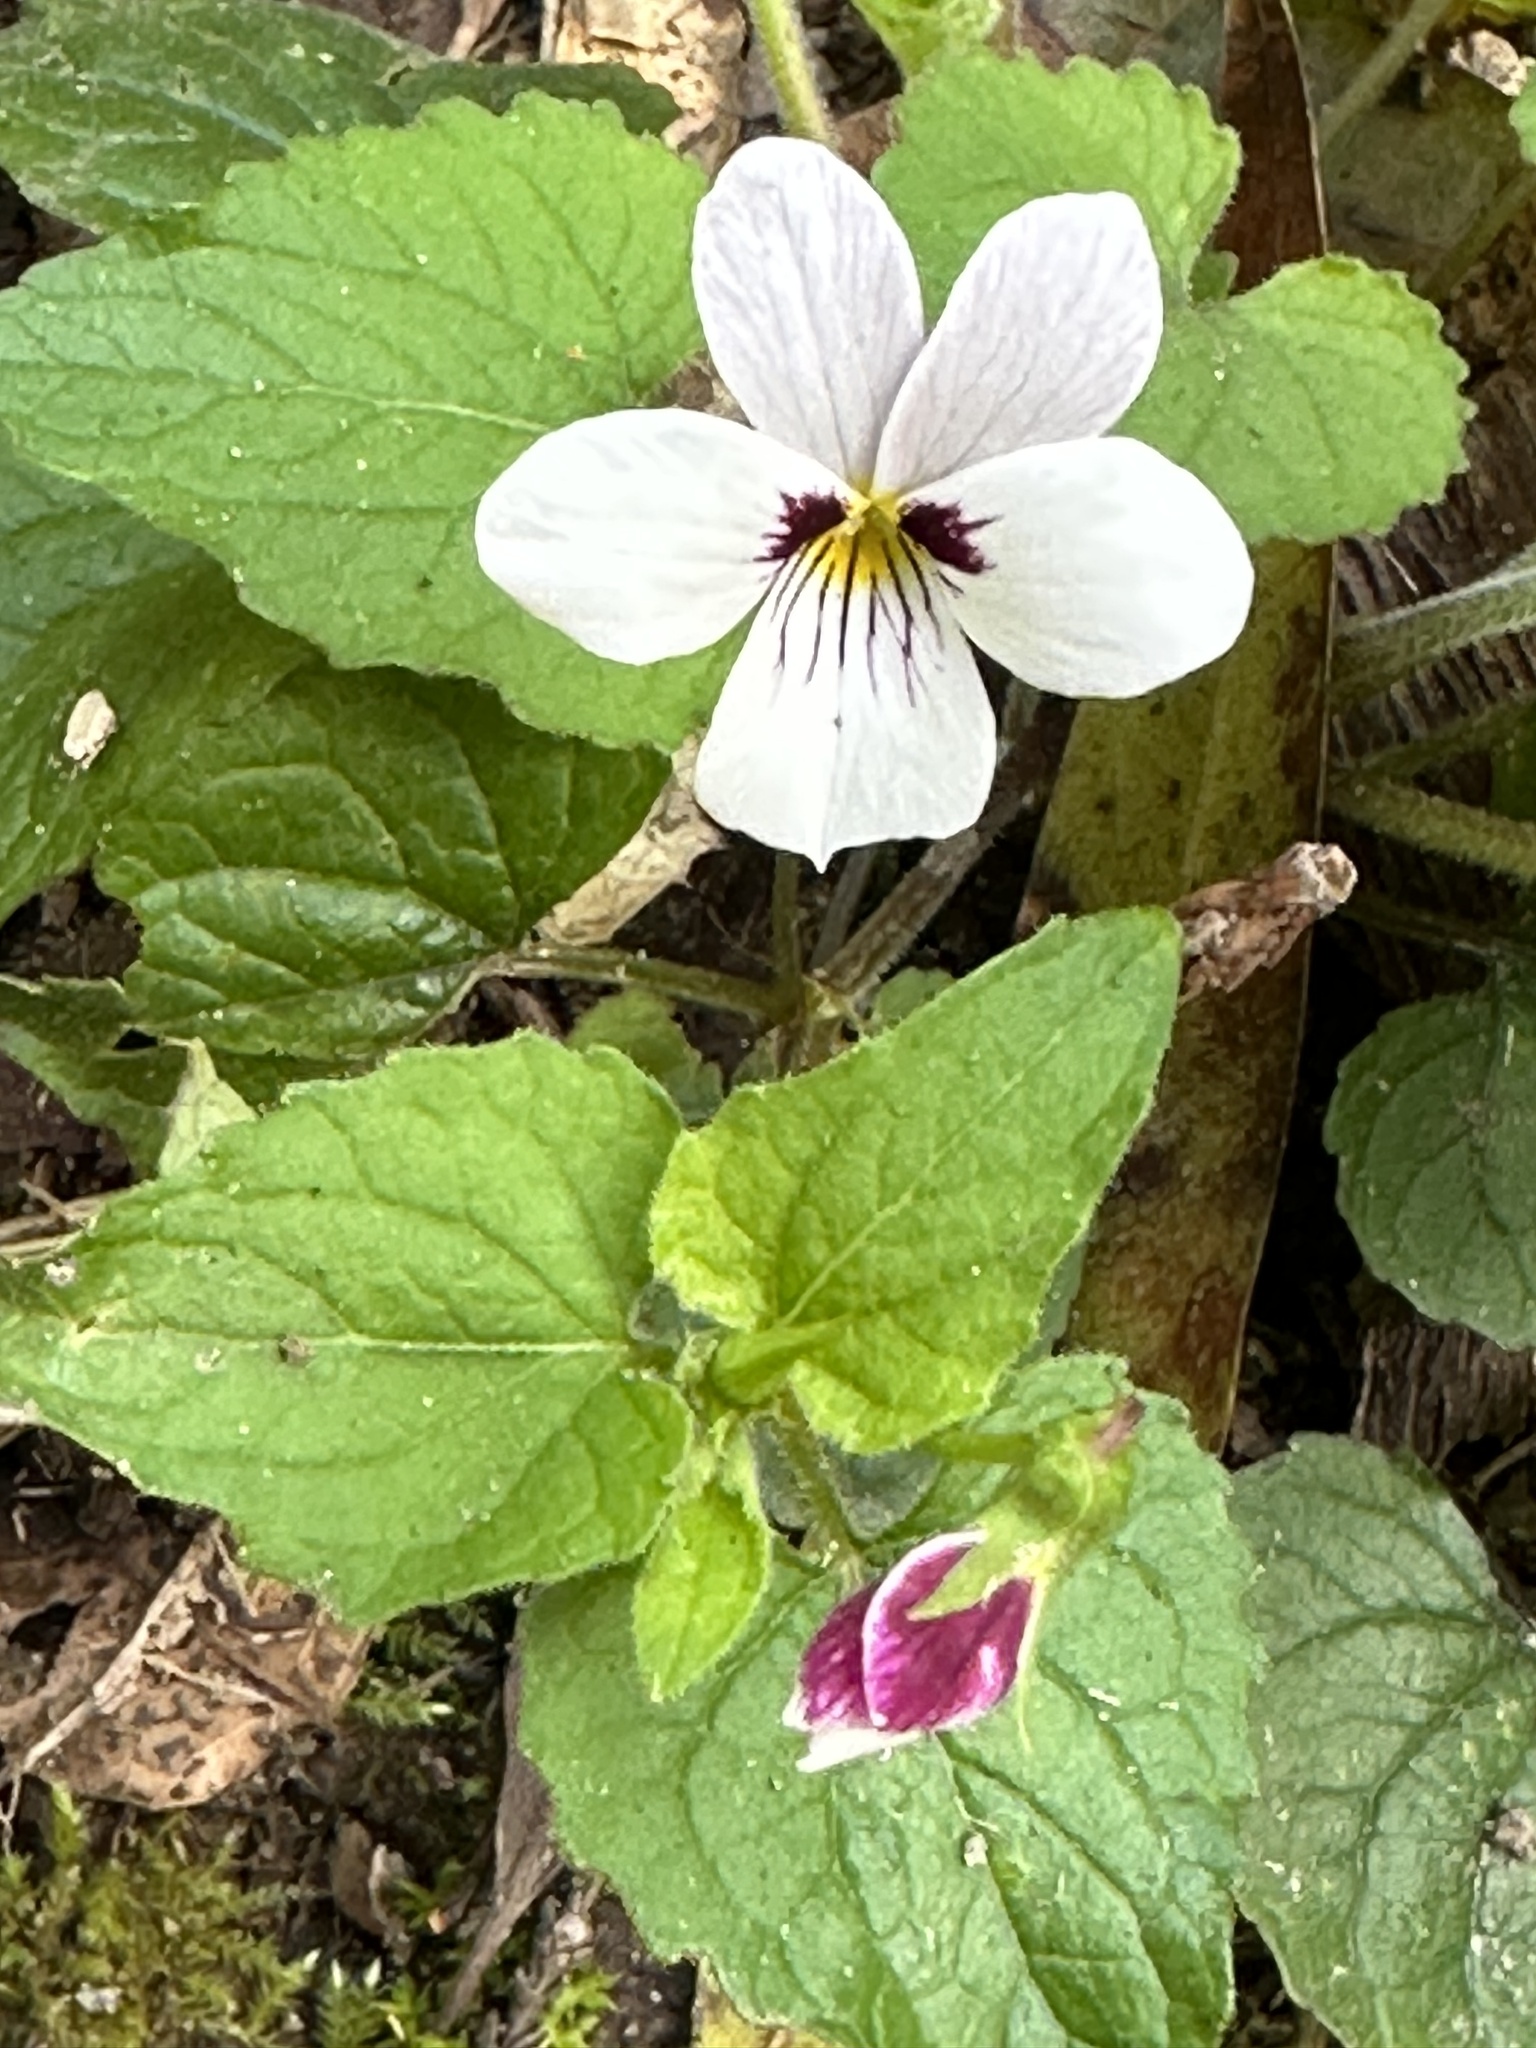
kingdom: Plantae
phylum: Tracheophyta
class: Magnoliopsida
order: Malpighiales
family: Violaceae
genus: Viola
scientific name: Viola ocellata
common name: Western heart's ease
